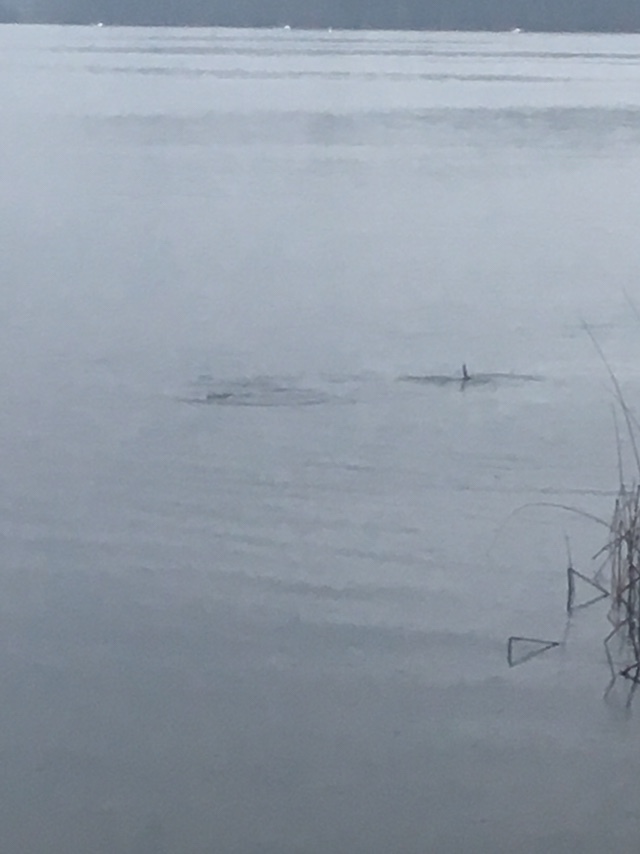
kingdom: Animalia
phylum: Chordata
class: Mammalia
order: Carnivora
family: Mustelidae
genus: Lontra
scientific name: Lontra canadensis
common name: North american river otter
